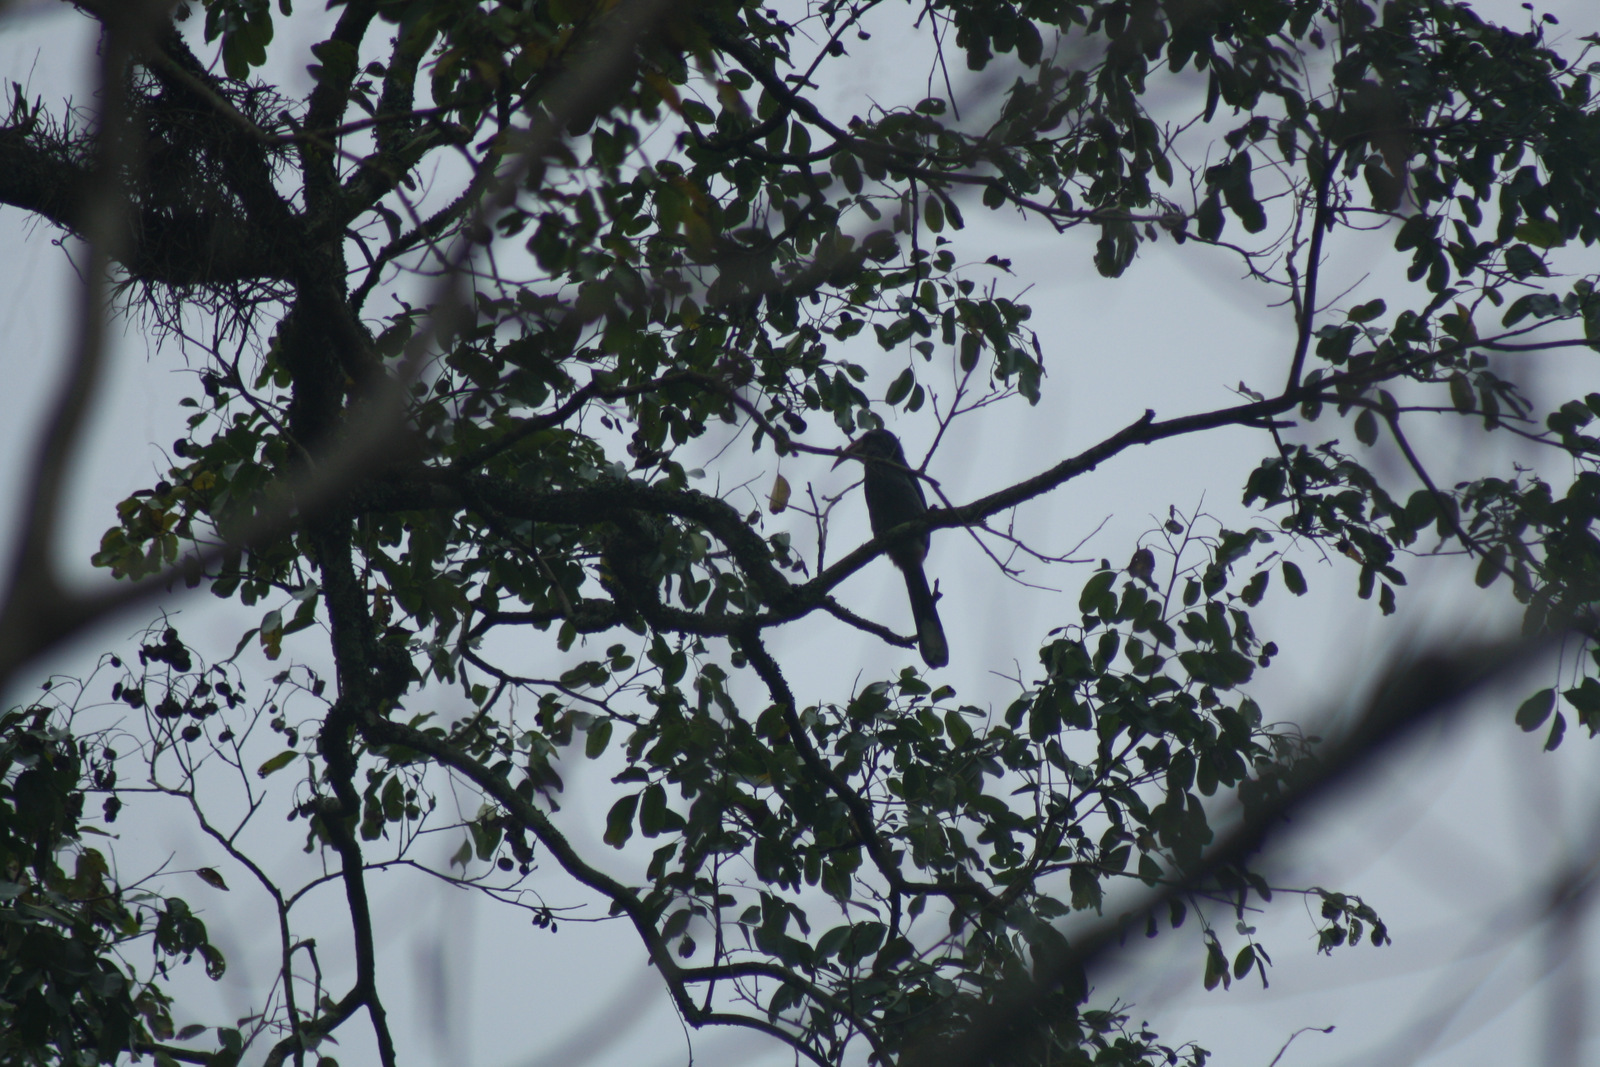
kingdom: Animalia
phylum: Chordata
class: Aves
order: Bucerotiformes
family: Bucerotidae
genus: Ocyceros
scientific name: Ocyceros griseus
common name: Malabar grey hornbill
